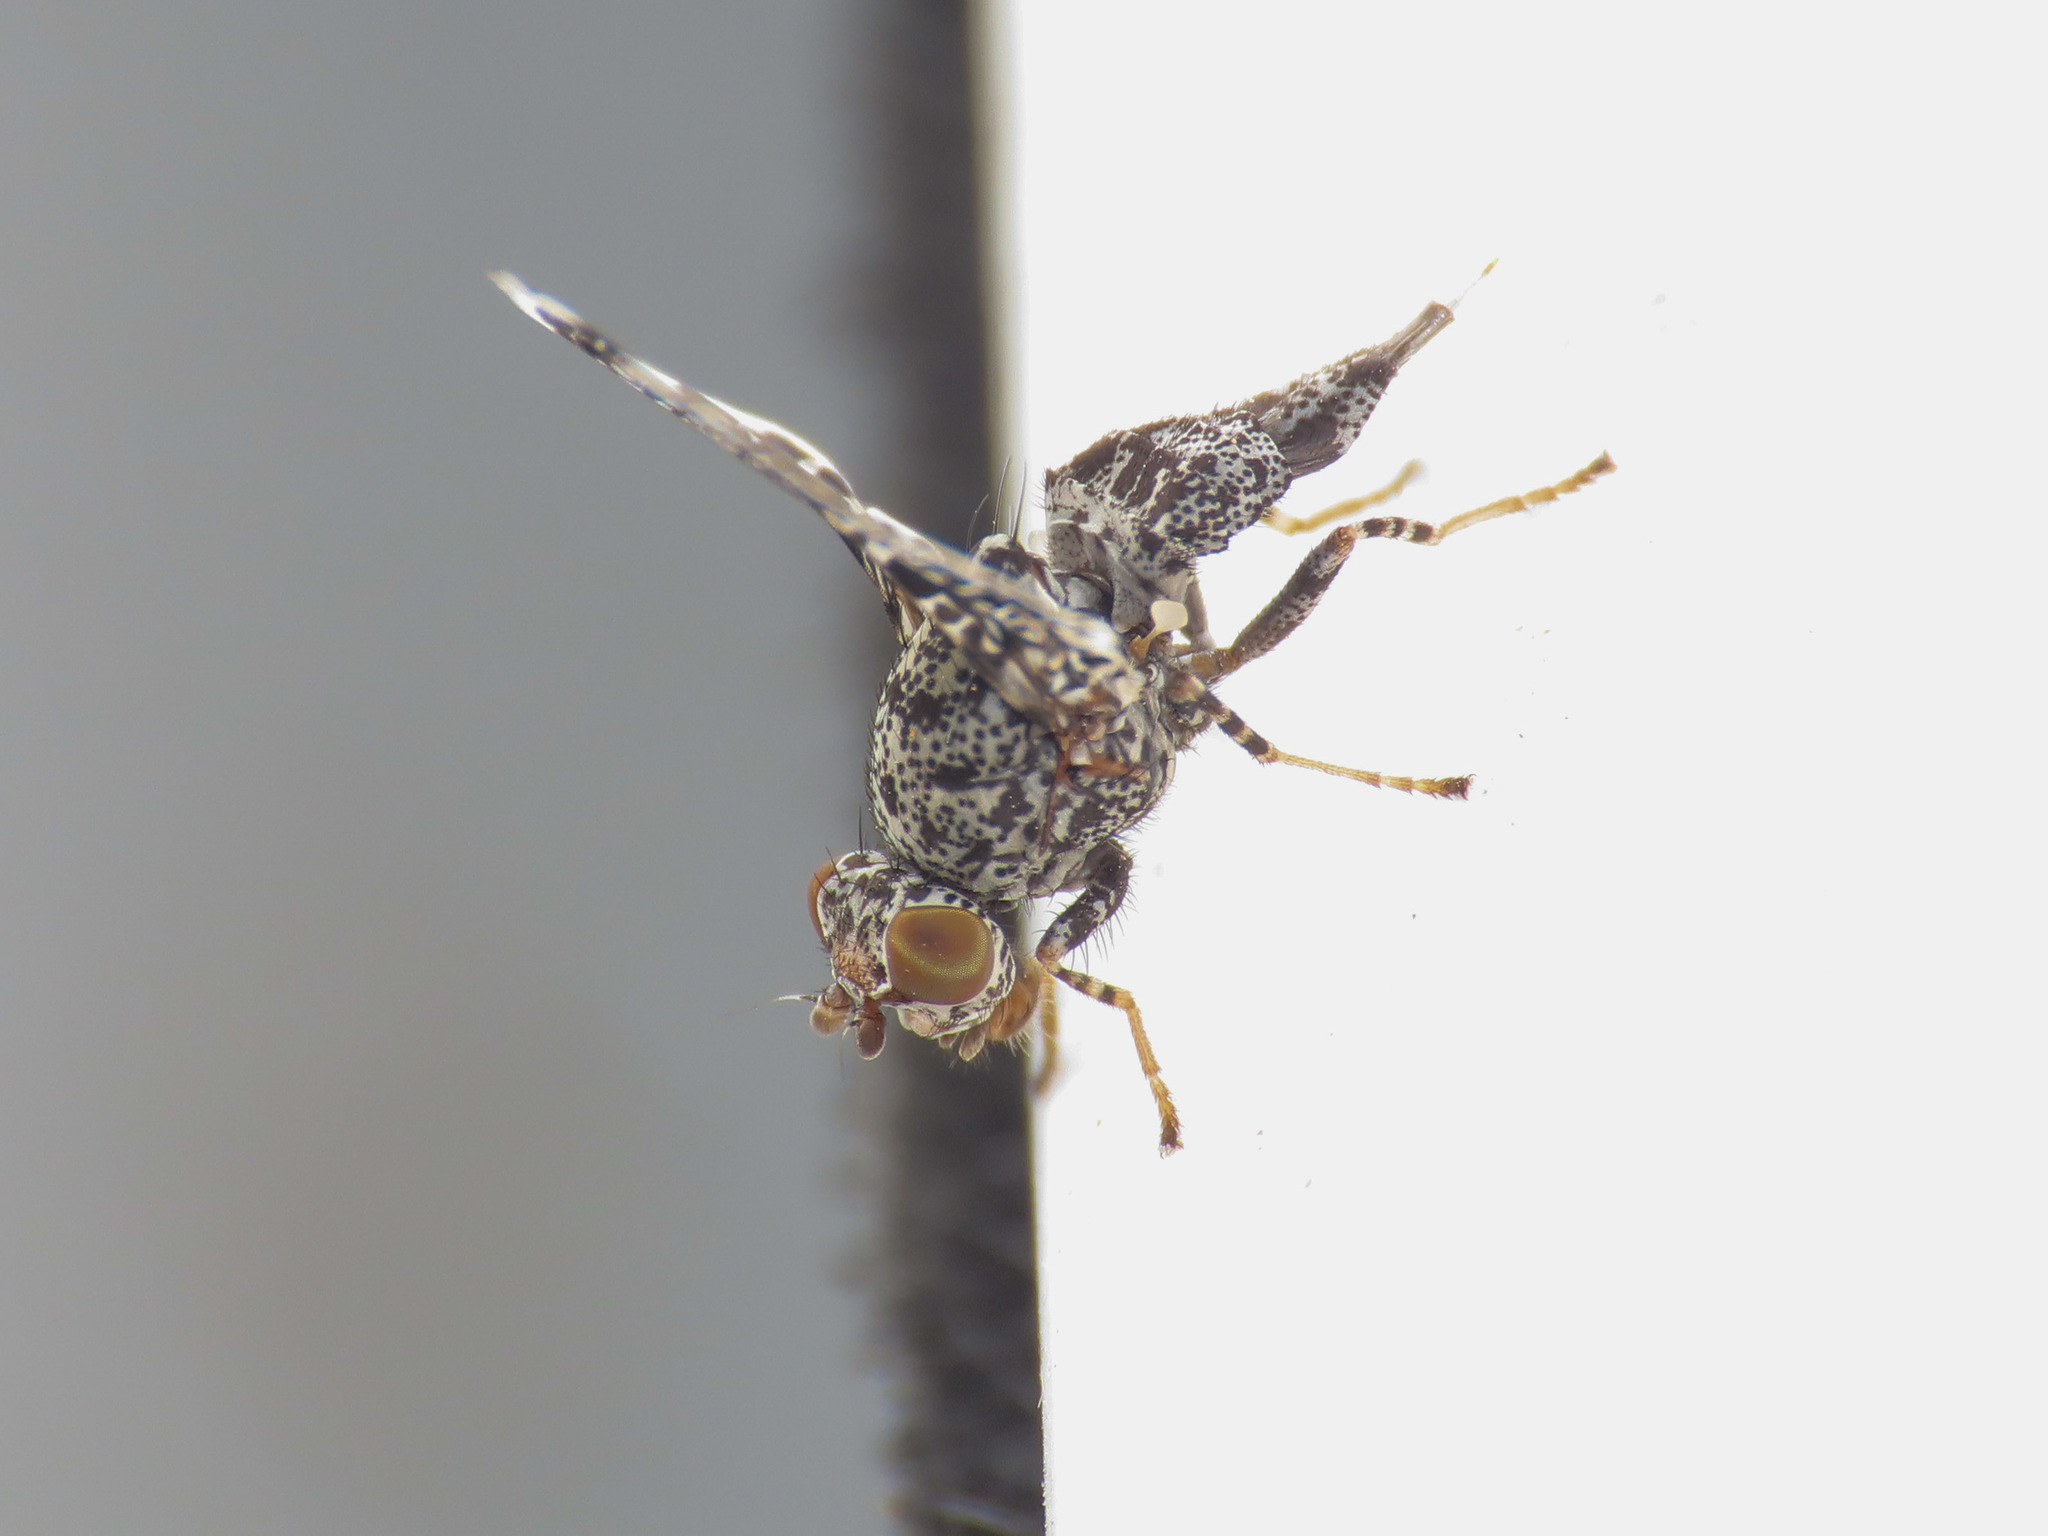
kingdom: Animalia
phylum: Arthropoda
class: Insecta
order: Diptera
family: Ulidiidae
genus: Callopistromyia
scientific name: Callopistromyia annulipes
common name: Peacock fly
